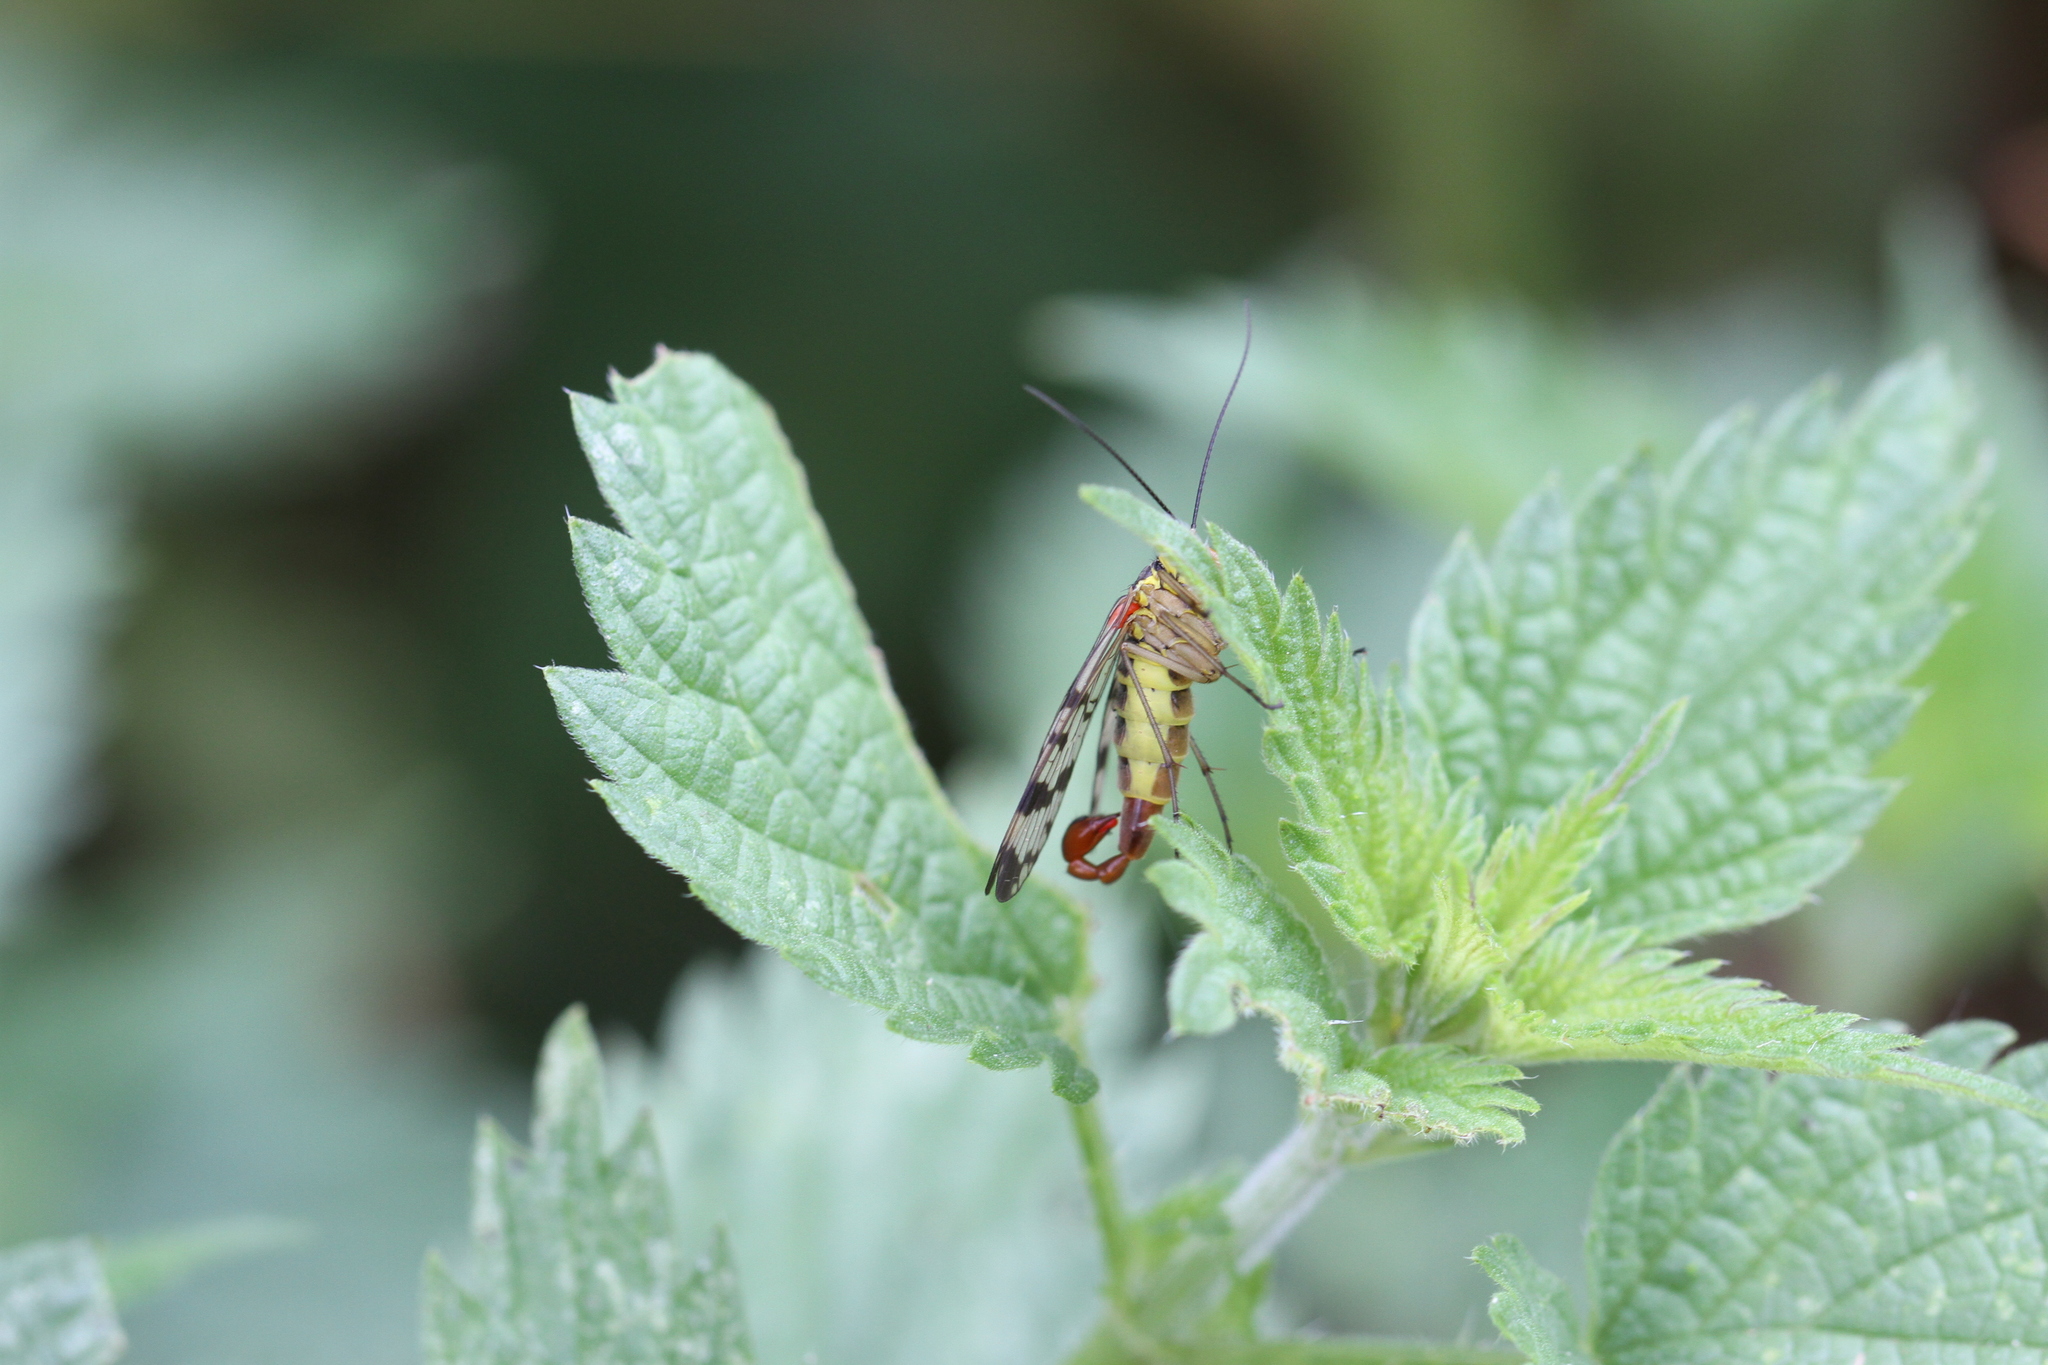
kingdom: Animalia
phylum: Arthropoda
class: Insecta
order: Mecoptera
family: Panorpidae
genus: Panorpa
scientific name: Panorpa communis
